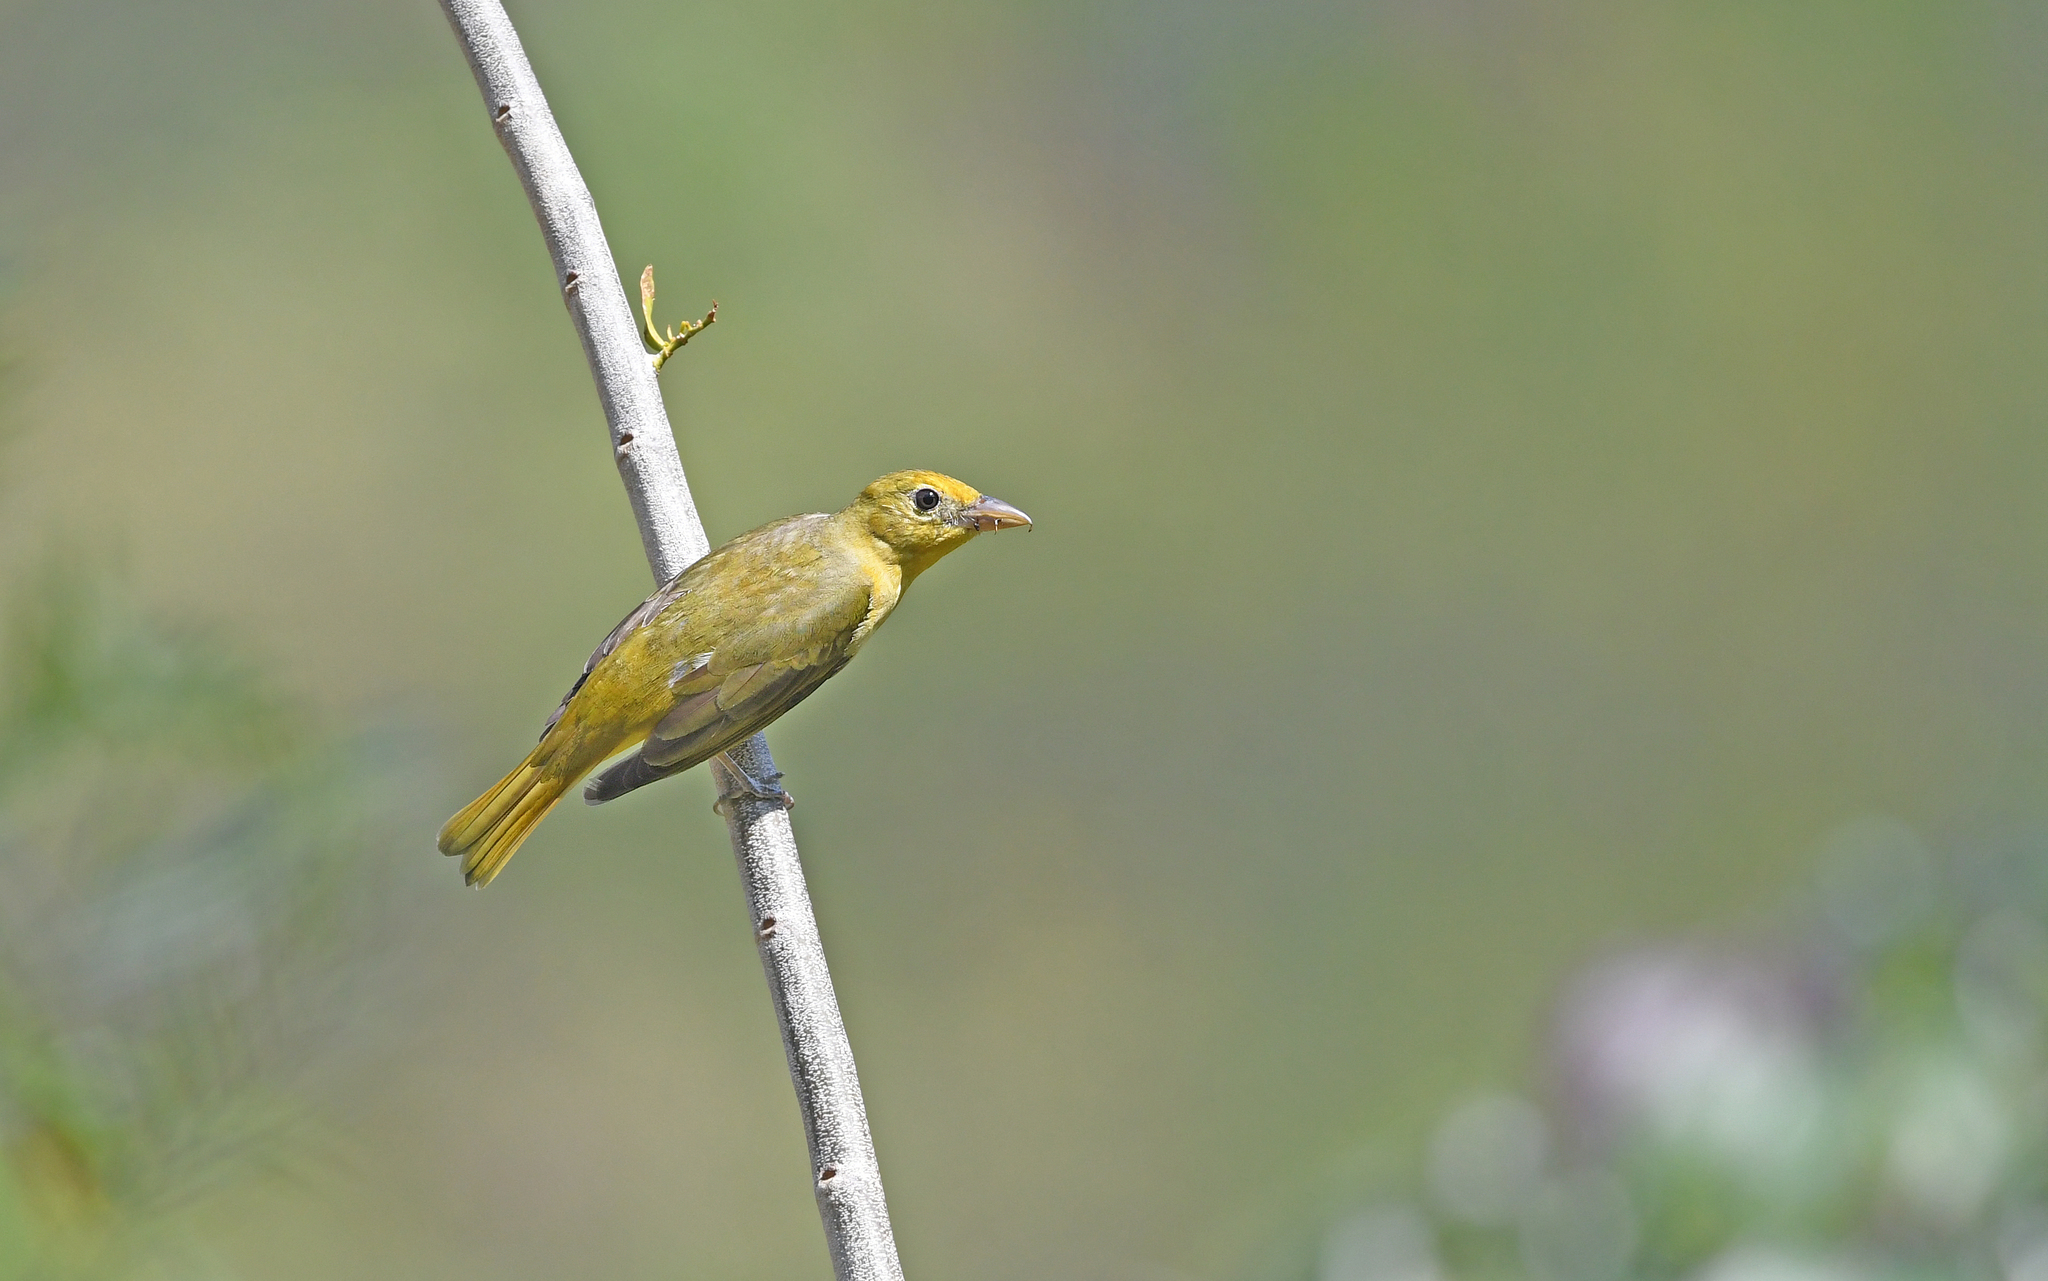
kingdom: Animalia
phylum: Chordata
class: Aves
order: Passeriformes
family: Cardinalidae
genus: Piranga
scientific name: Piranga rubra
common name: Summer tanager
